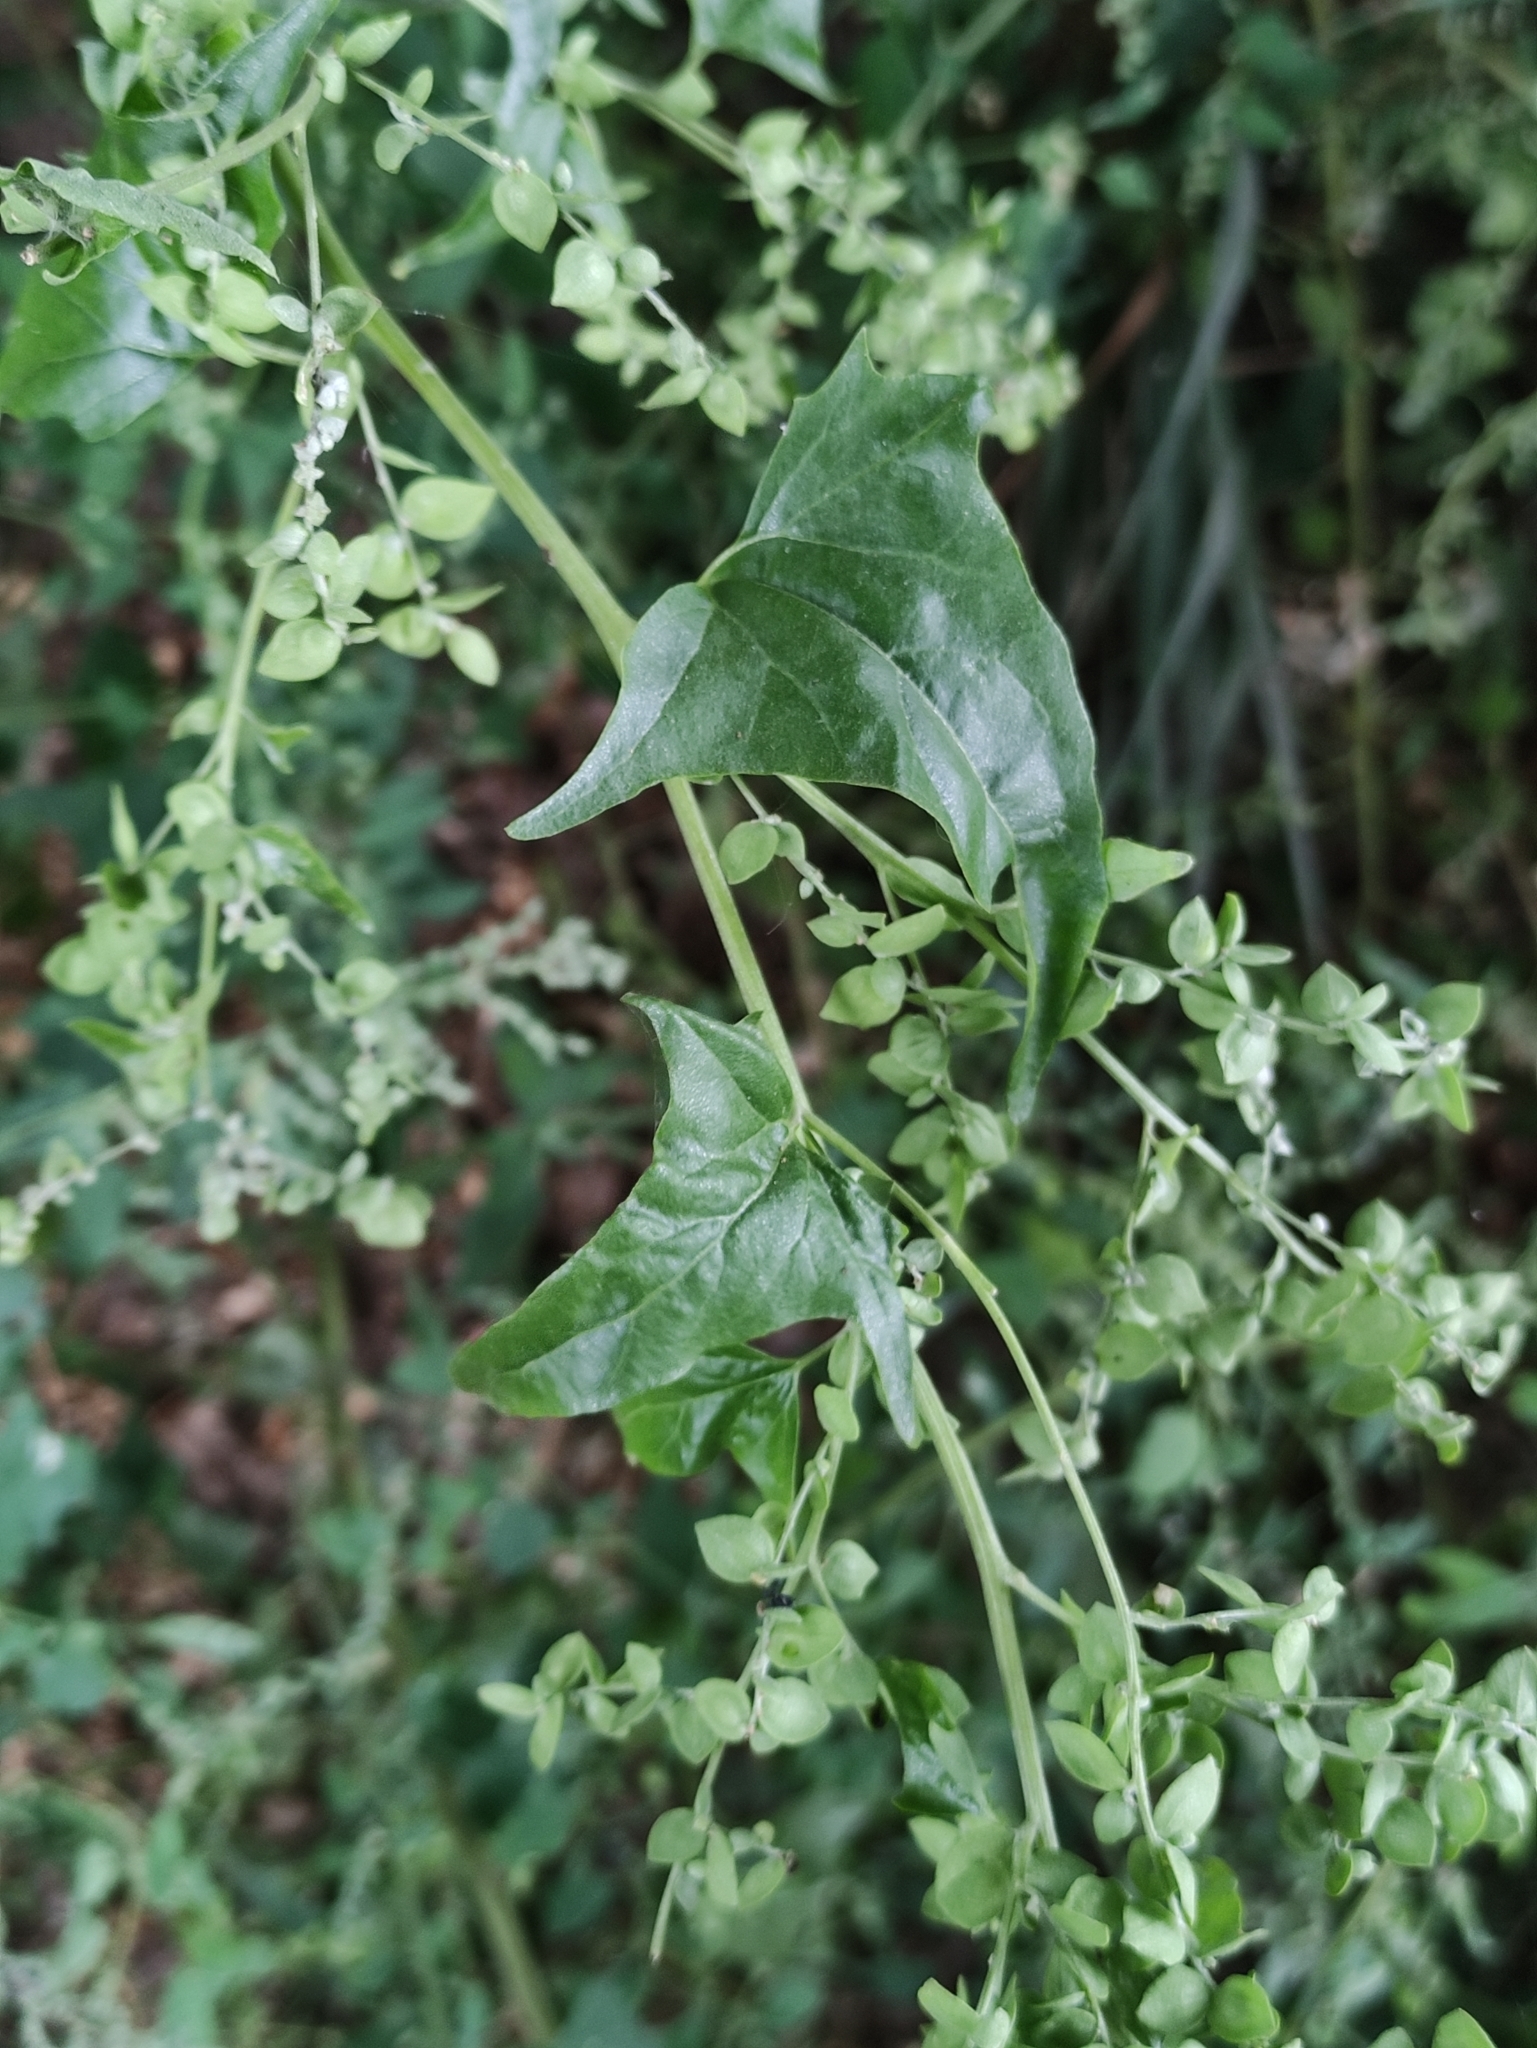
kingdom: Plantae
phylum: Tracheophyta
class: Magnoliopsida
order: Caryophyllales
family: Amaranthaceae
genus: Atriplex
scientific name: Atriplex sagittata
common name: Purple orache
